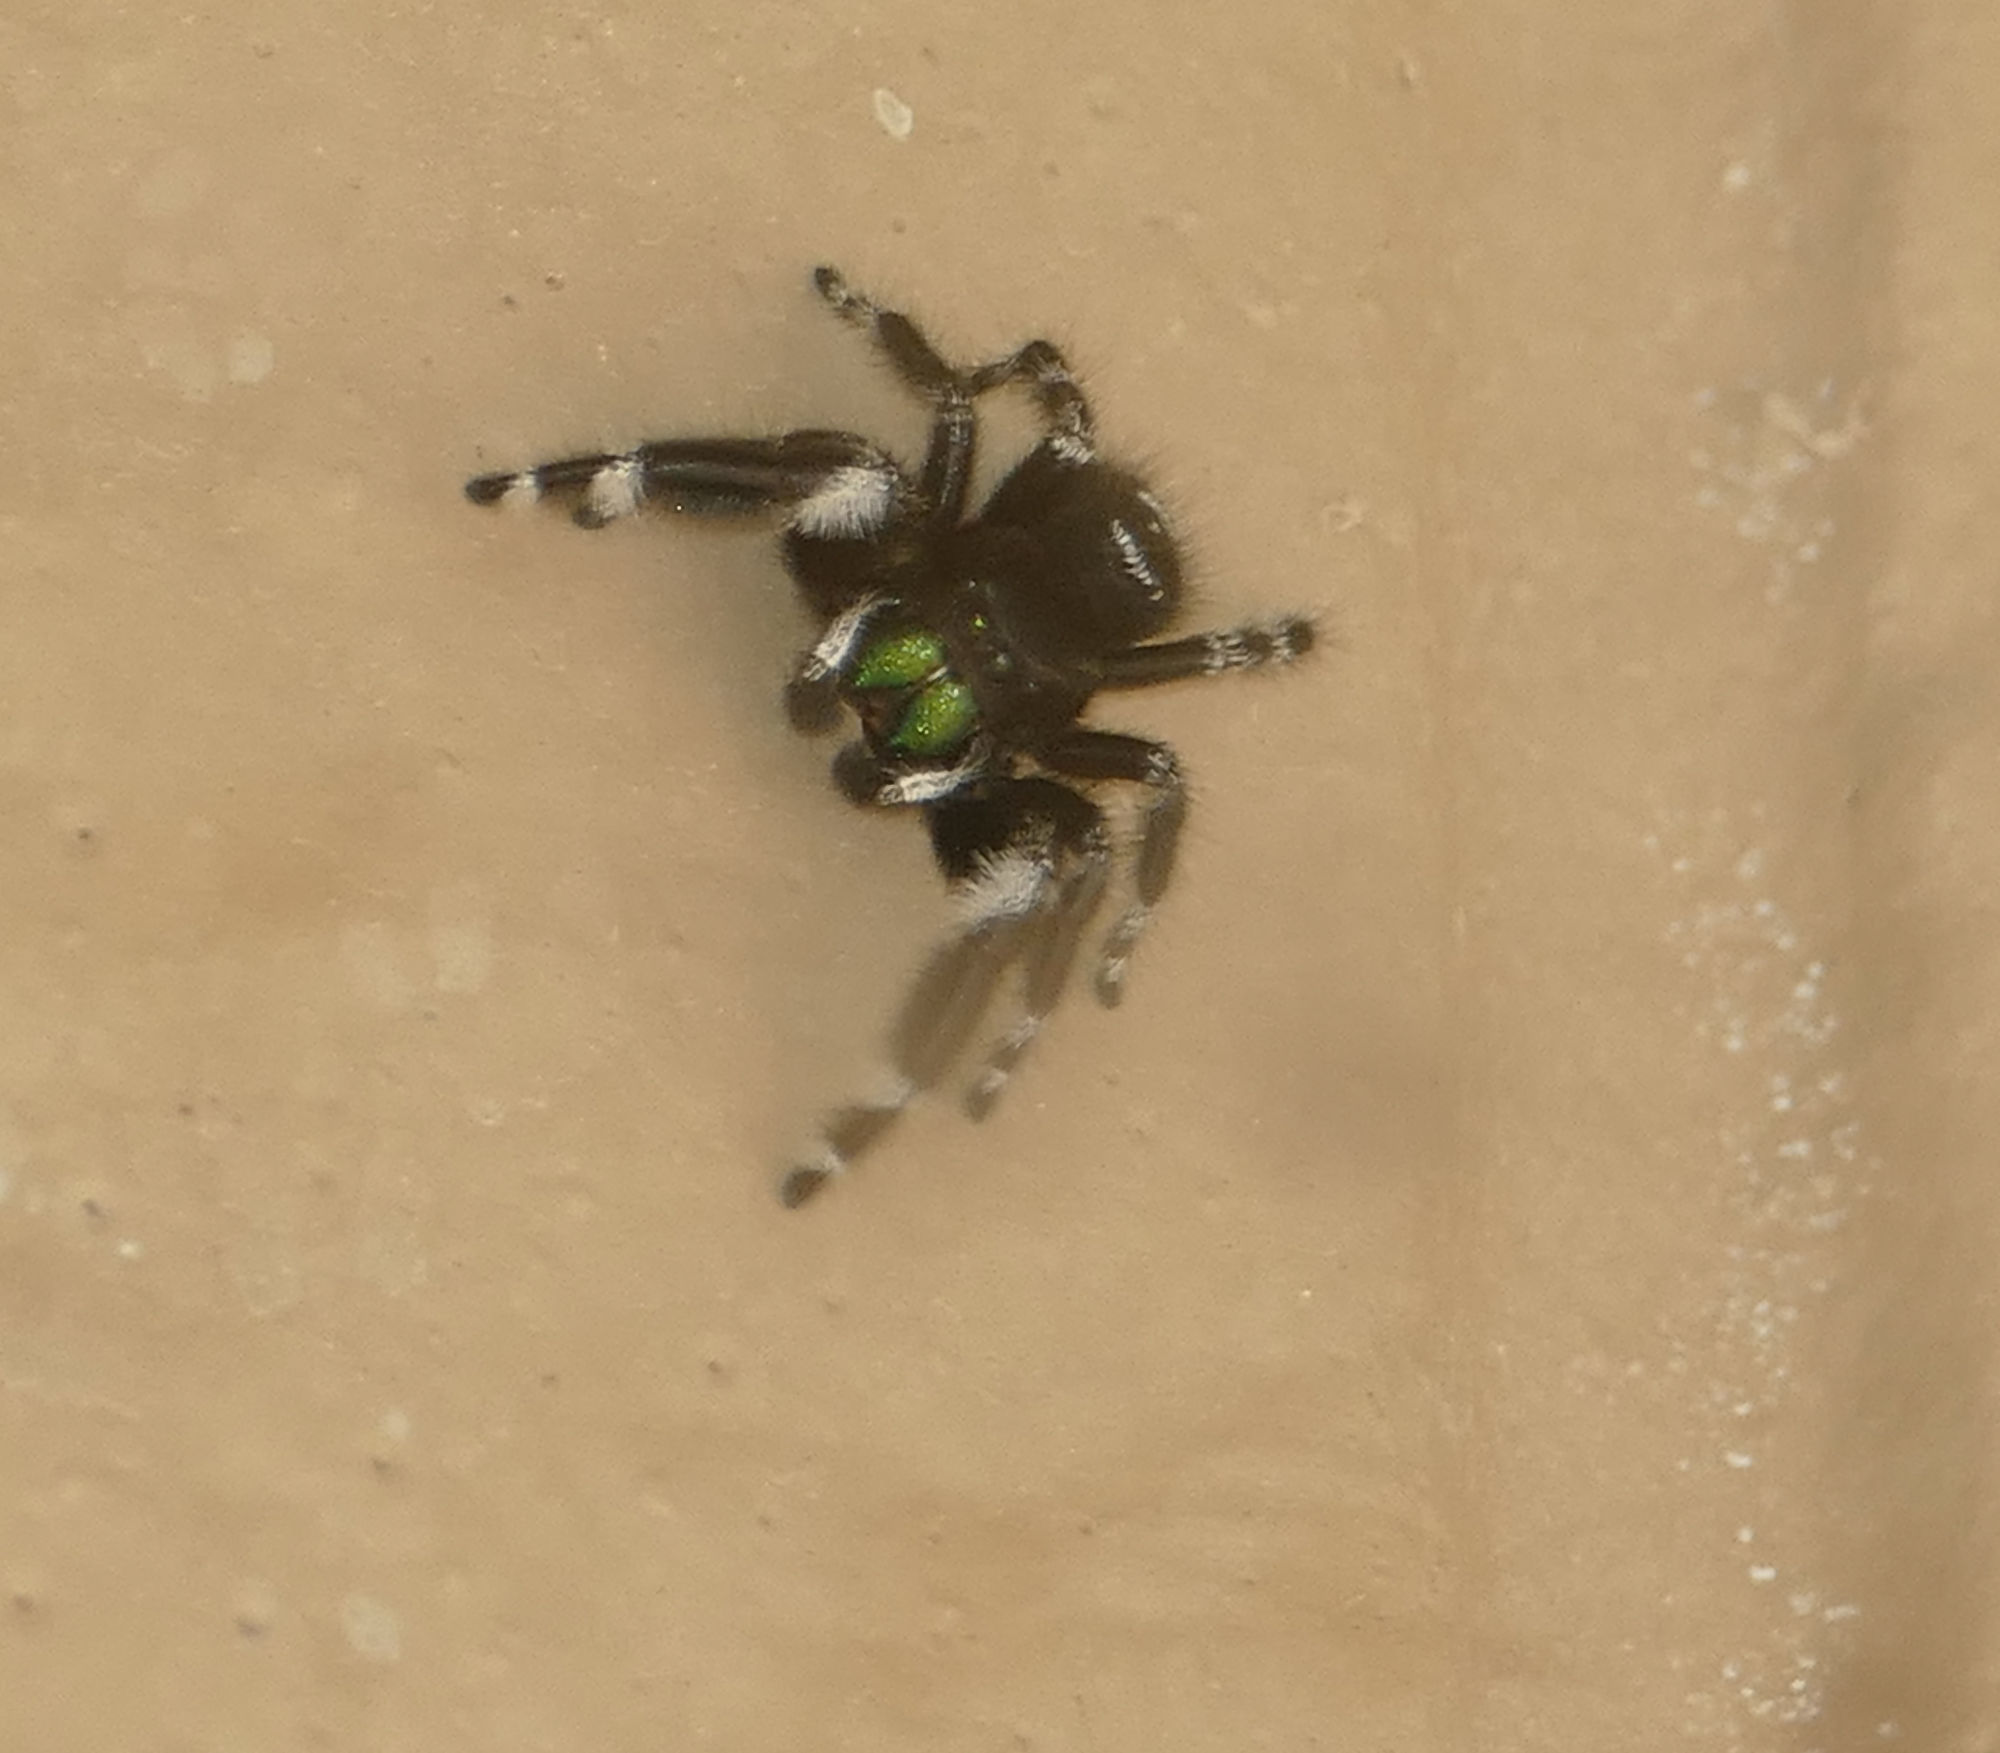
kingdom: Animalia
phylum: Arthropoda
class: Arachnida
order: Araneae
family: Salticidae
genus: Phidippus
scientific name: Phidippus audax
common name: Bold jumper
